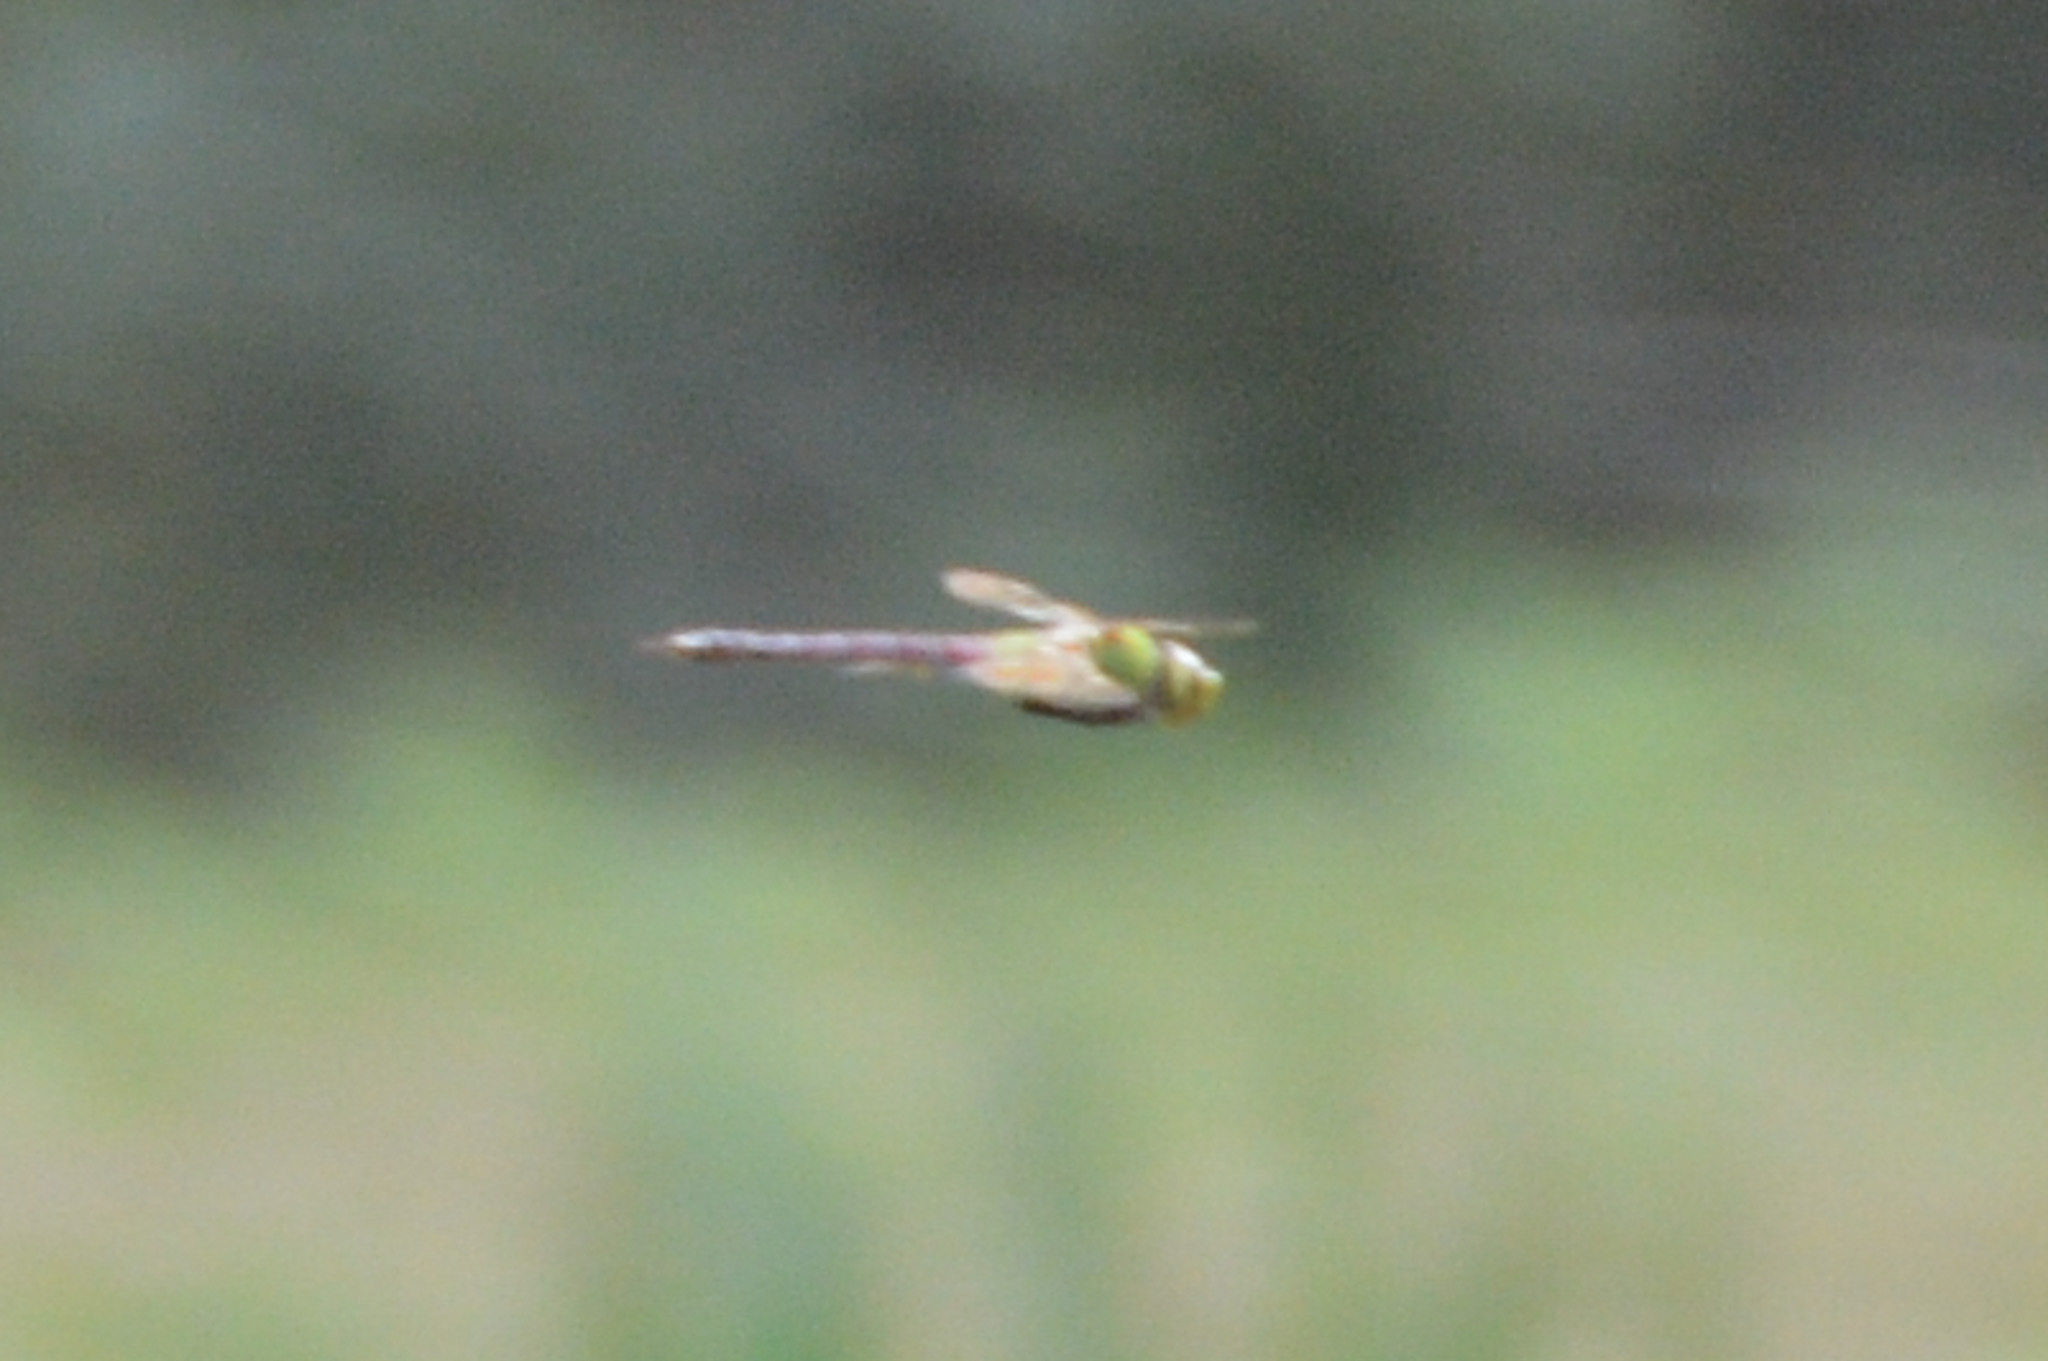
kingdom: Animalia
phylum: Arthropoda
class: Insecta
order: Odonata
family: Aeshnidae
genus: Anax
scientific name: Anax junius
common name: Common green darner
